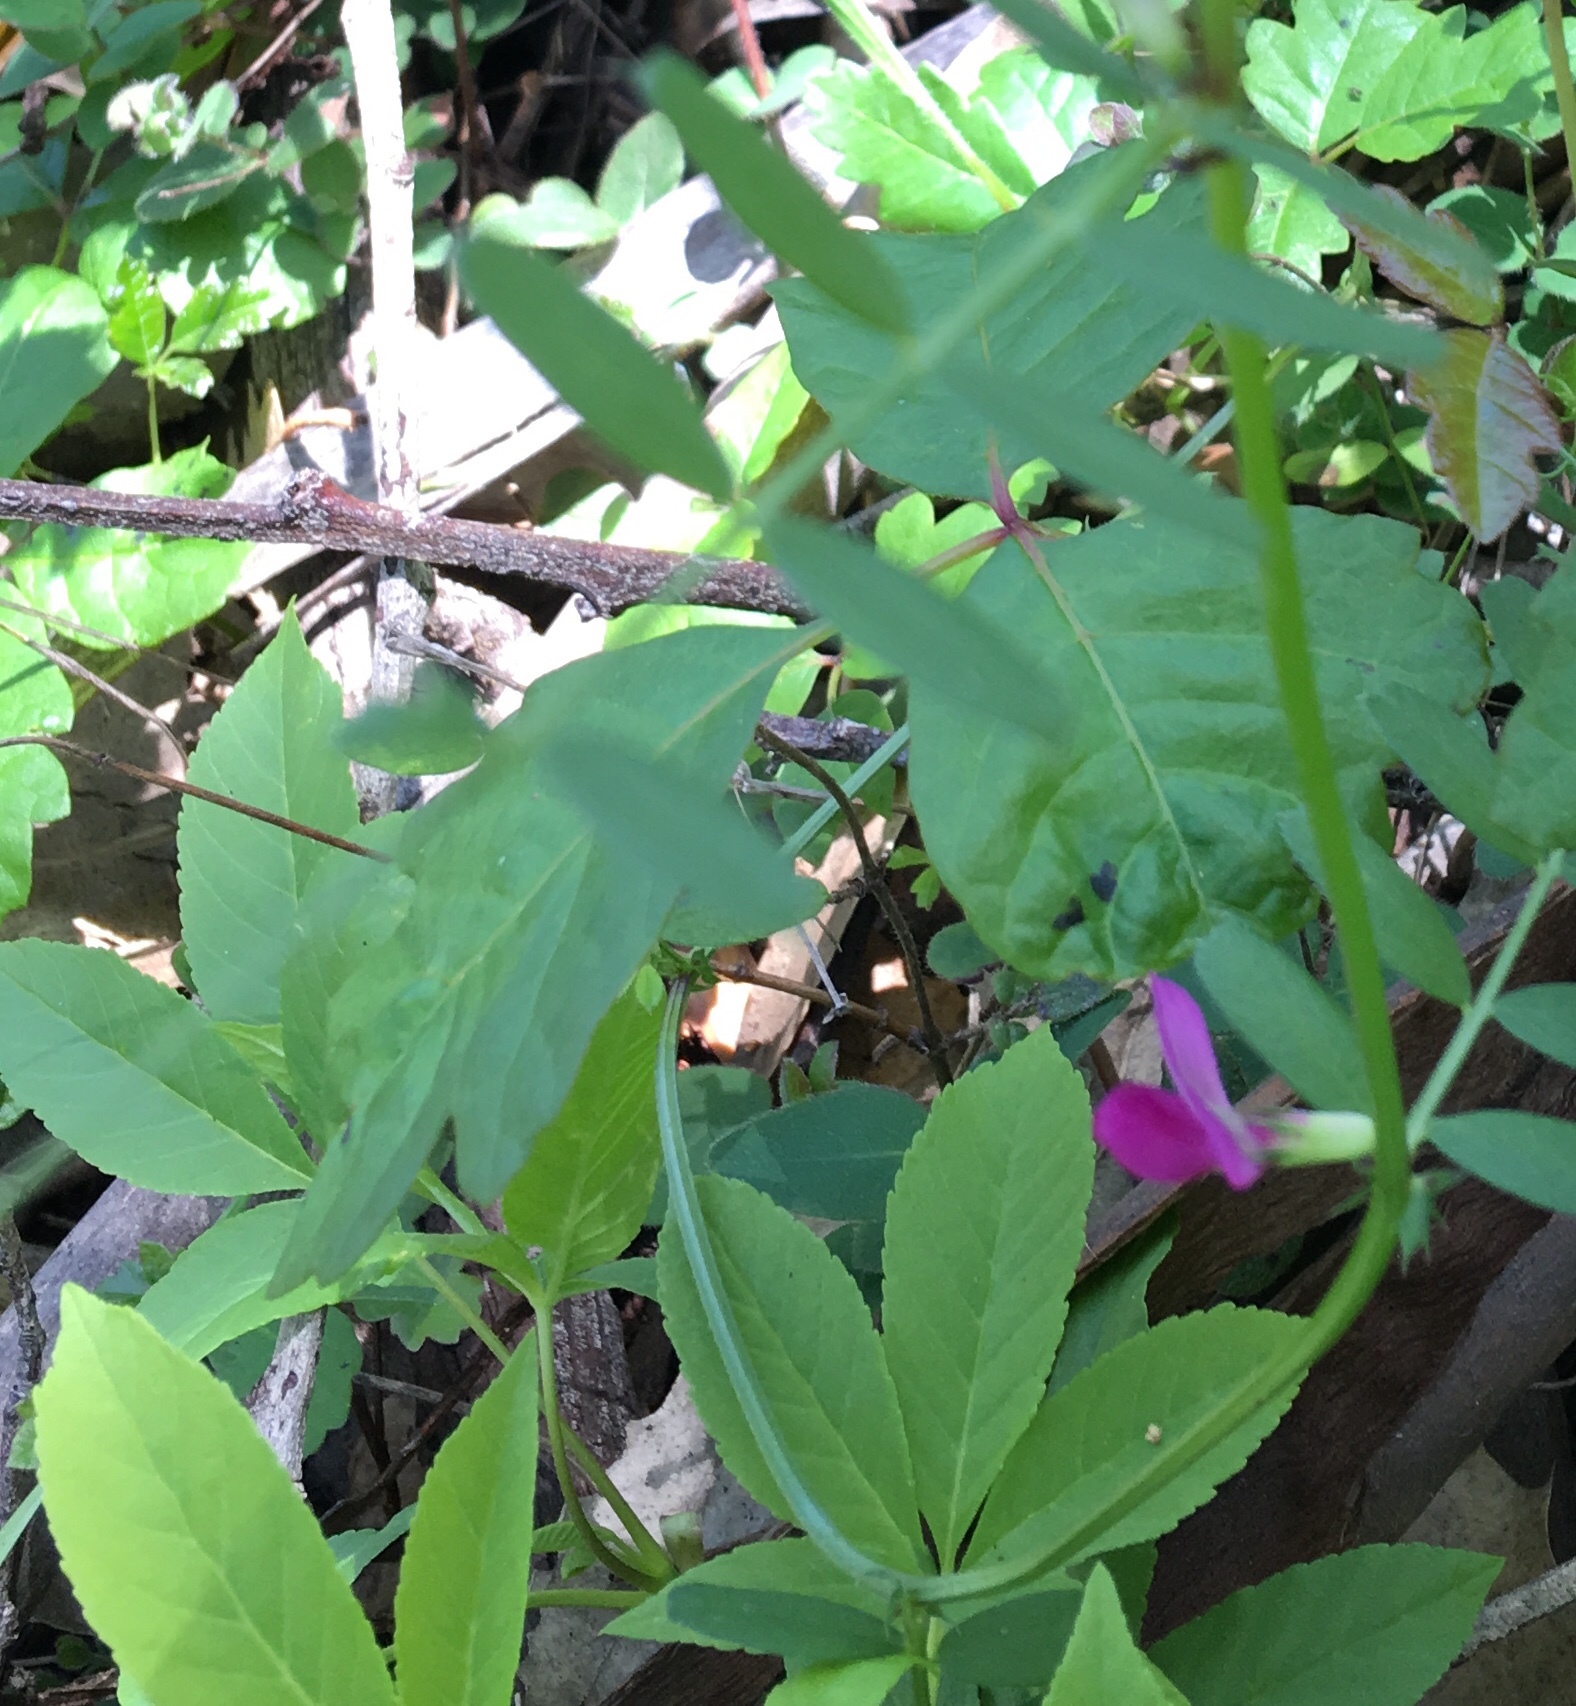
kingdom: Plantae
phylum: Tracheophyta
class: Magnoliopsida
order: Fabales
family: Fabaceae
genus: Vicia
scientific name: Vicia sativa
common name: Garden vetch
